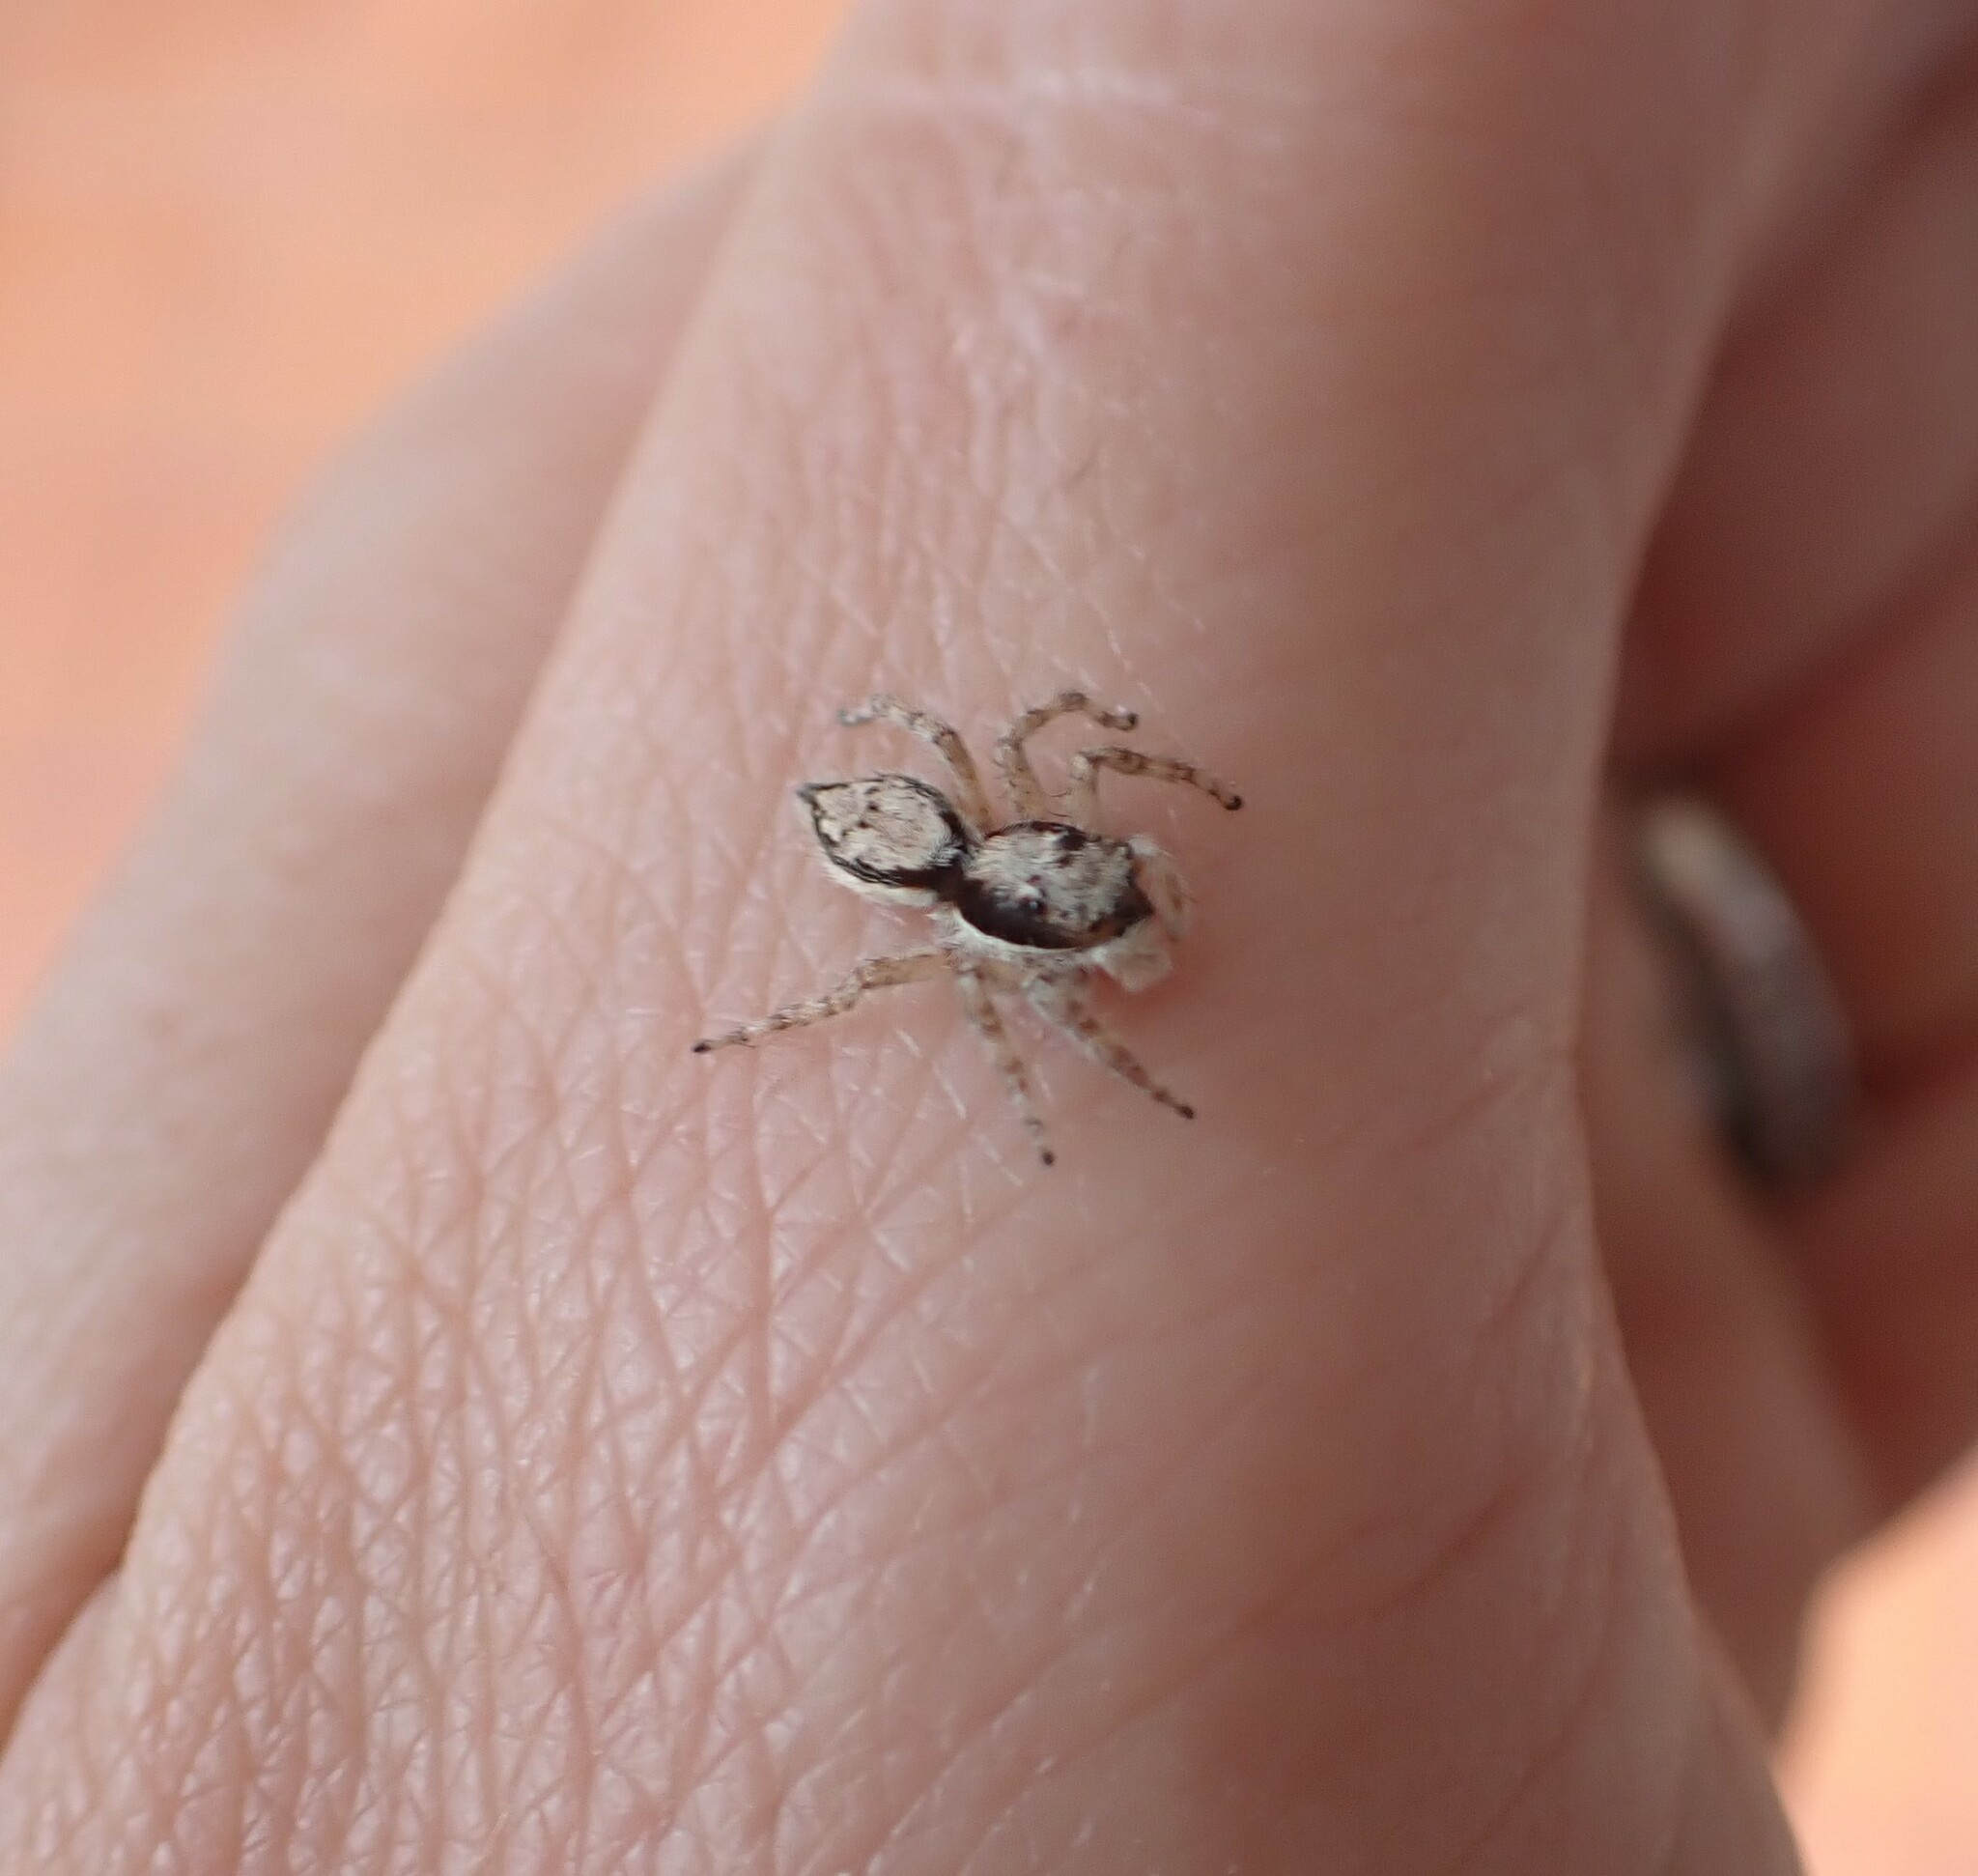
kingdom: Animalia
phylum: Arthropoda
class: Arachnida
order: Araneae
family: Salticidae
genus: Menemerus
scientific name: Menemerus bivittatus
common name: Gray wall jumper
